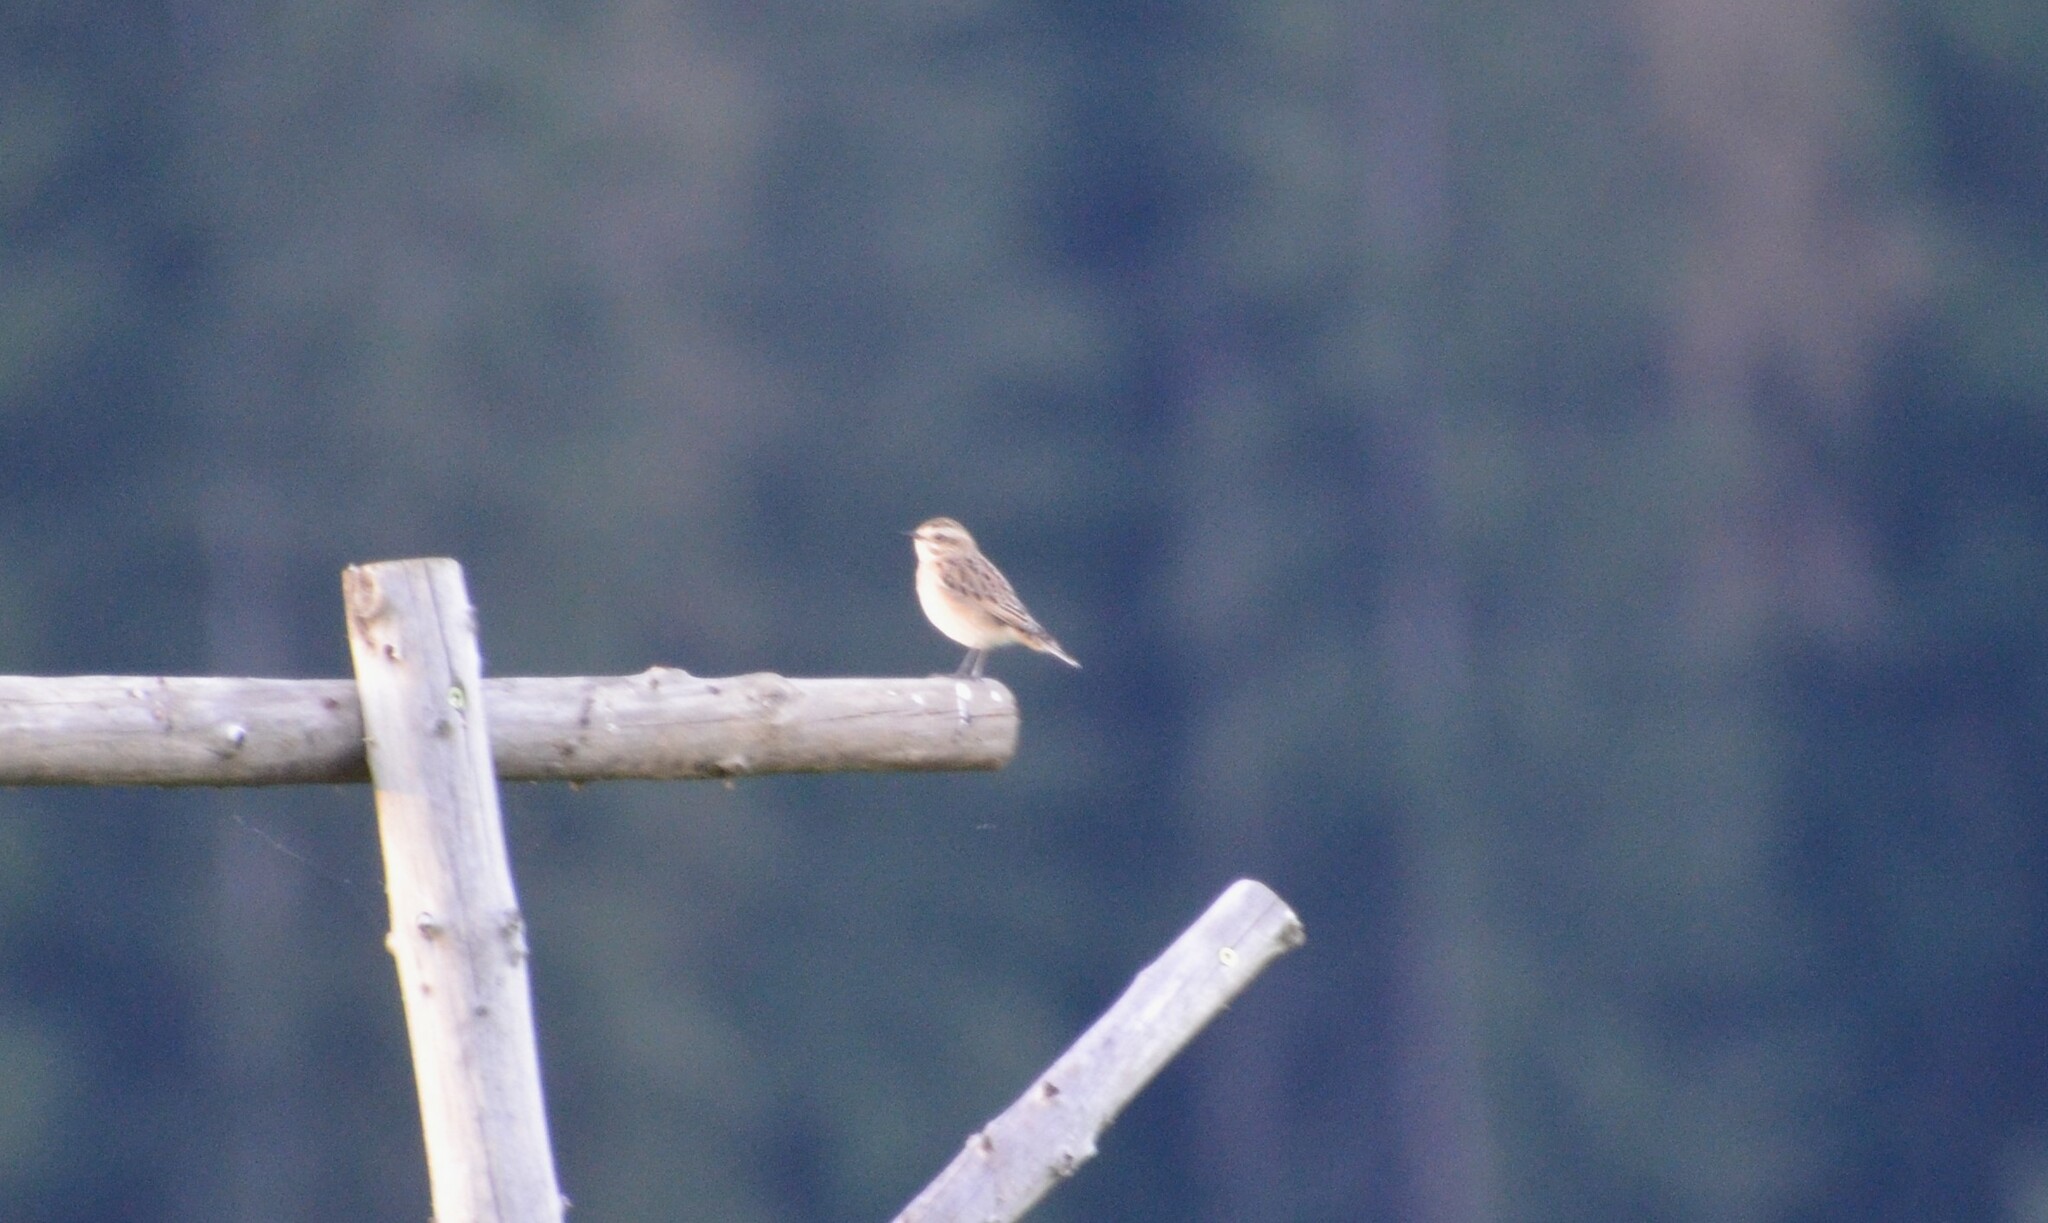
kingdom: Animalia
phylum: Chordata
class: Aves
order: Passeriformes
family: Muscicapidae
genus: Saxicola
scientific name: Saxicola rubetra
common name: Whinchat
